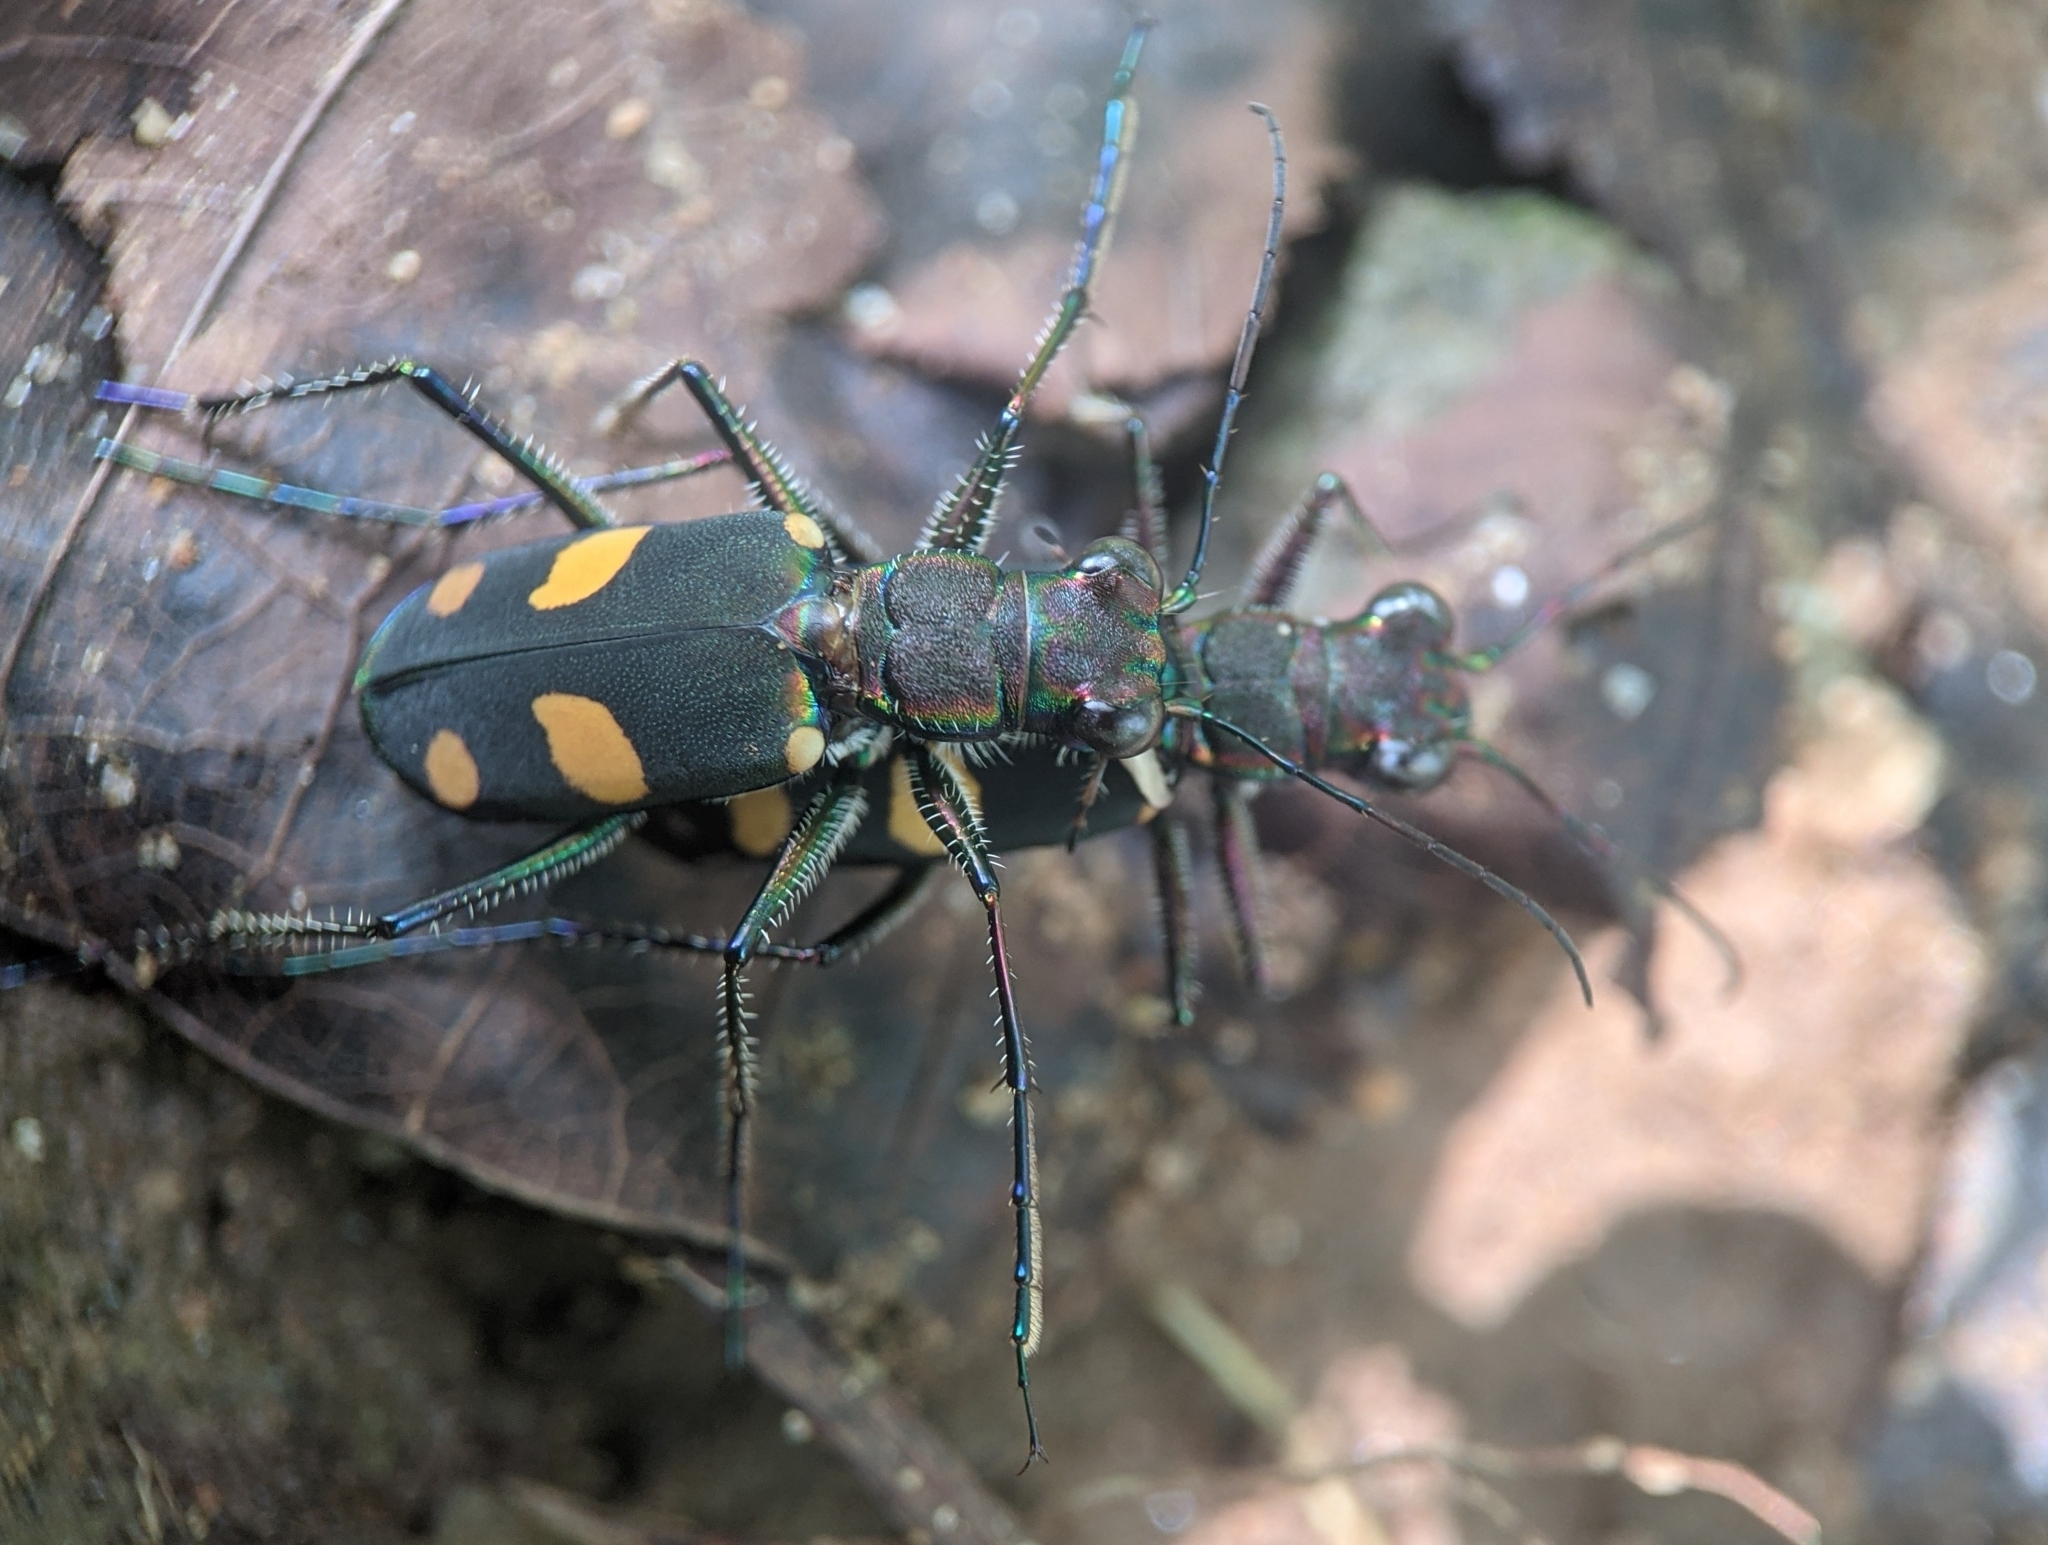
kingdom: Animalia
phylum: Arthropoda
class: Insecta
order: Coleoptera
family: Carabidae
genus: Cicindela
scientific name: Cicindela bicolor
